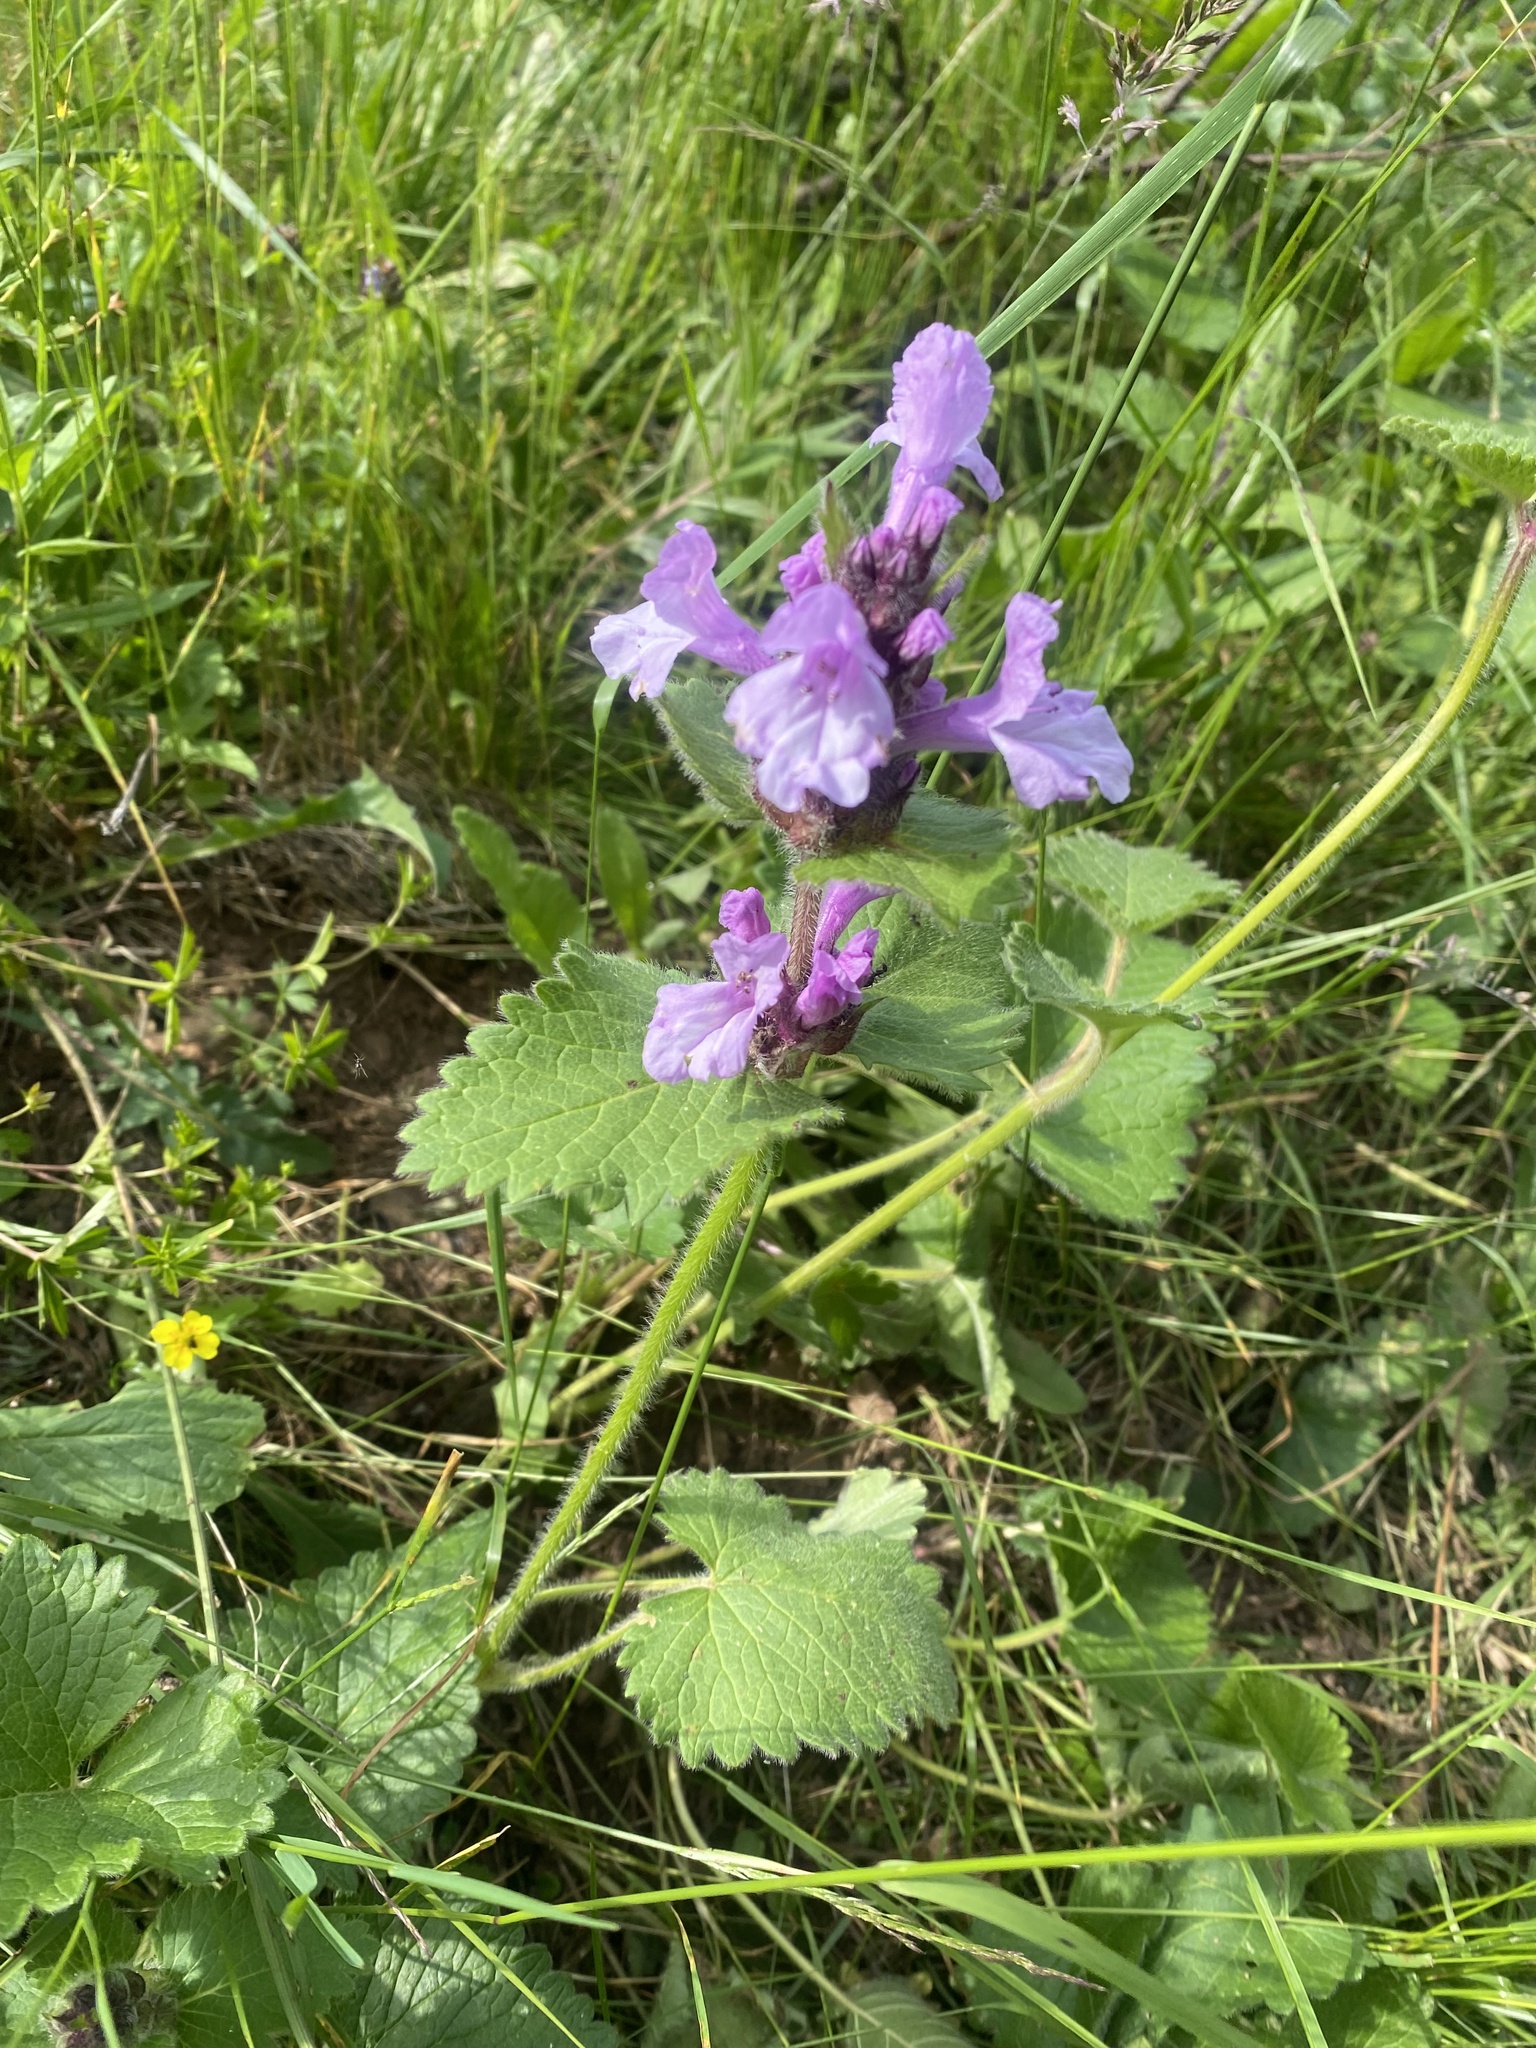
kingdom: Plantae
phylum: Tracheophyta
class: Magnoliopsida
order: Lamiales
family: Lamiaceae
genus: Betonica
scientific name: Betonica macrantha
